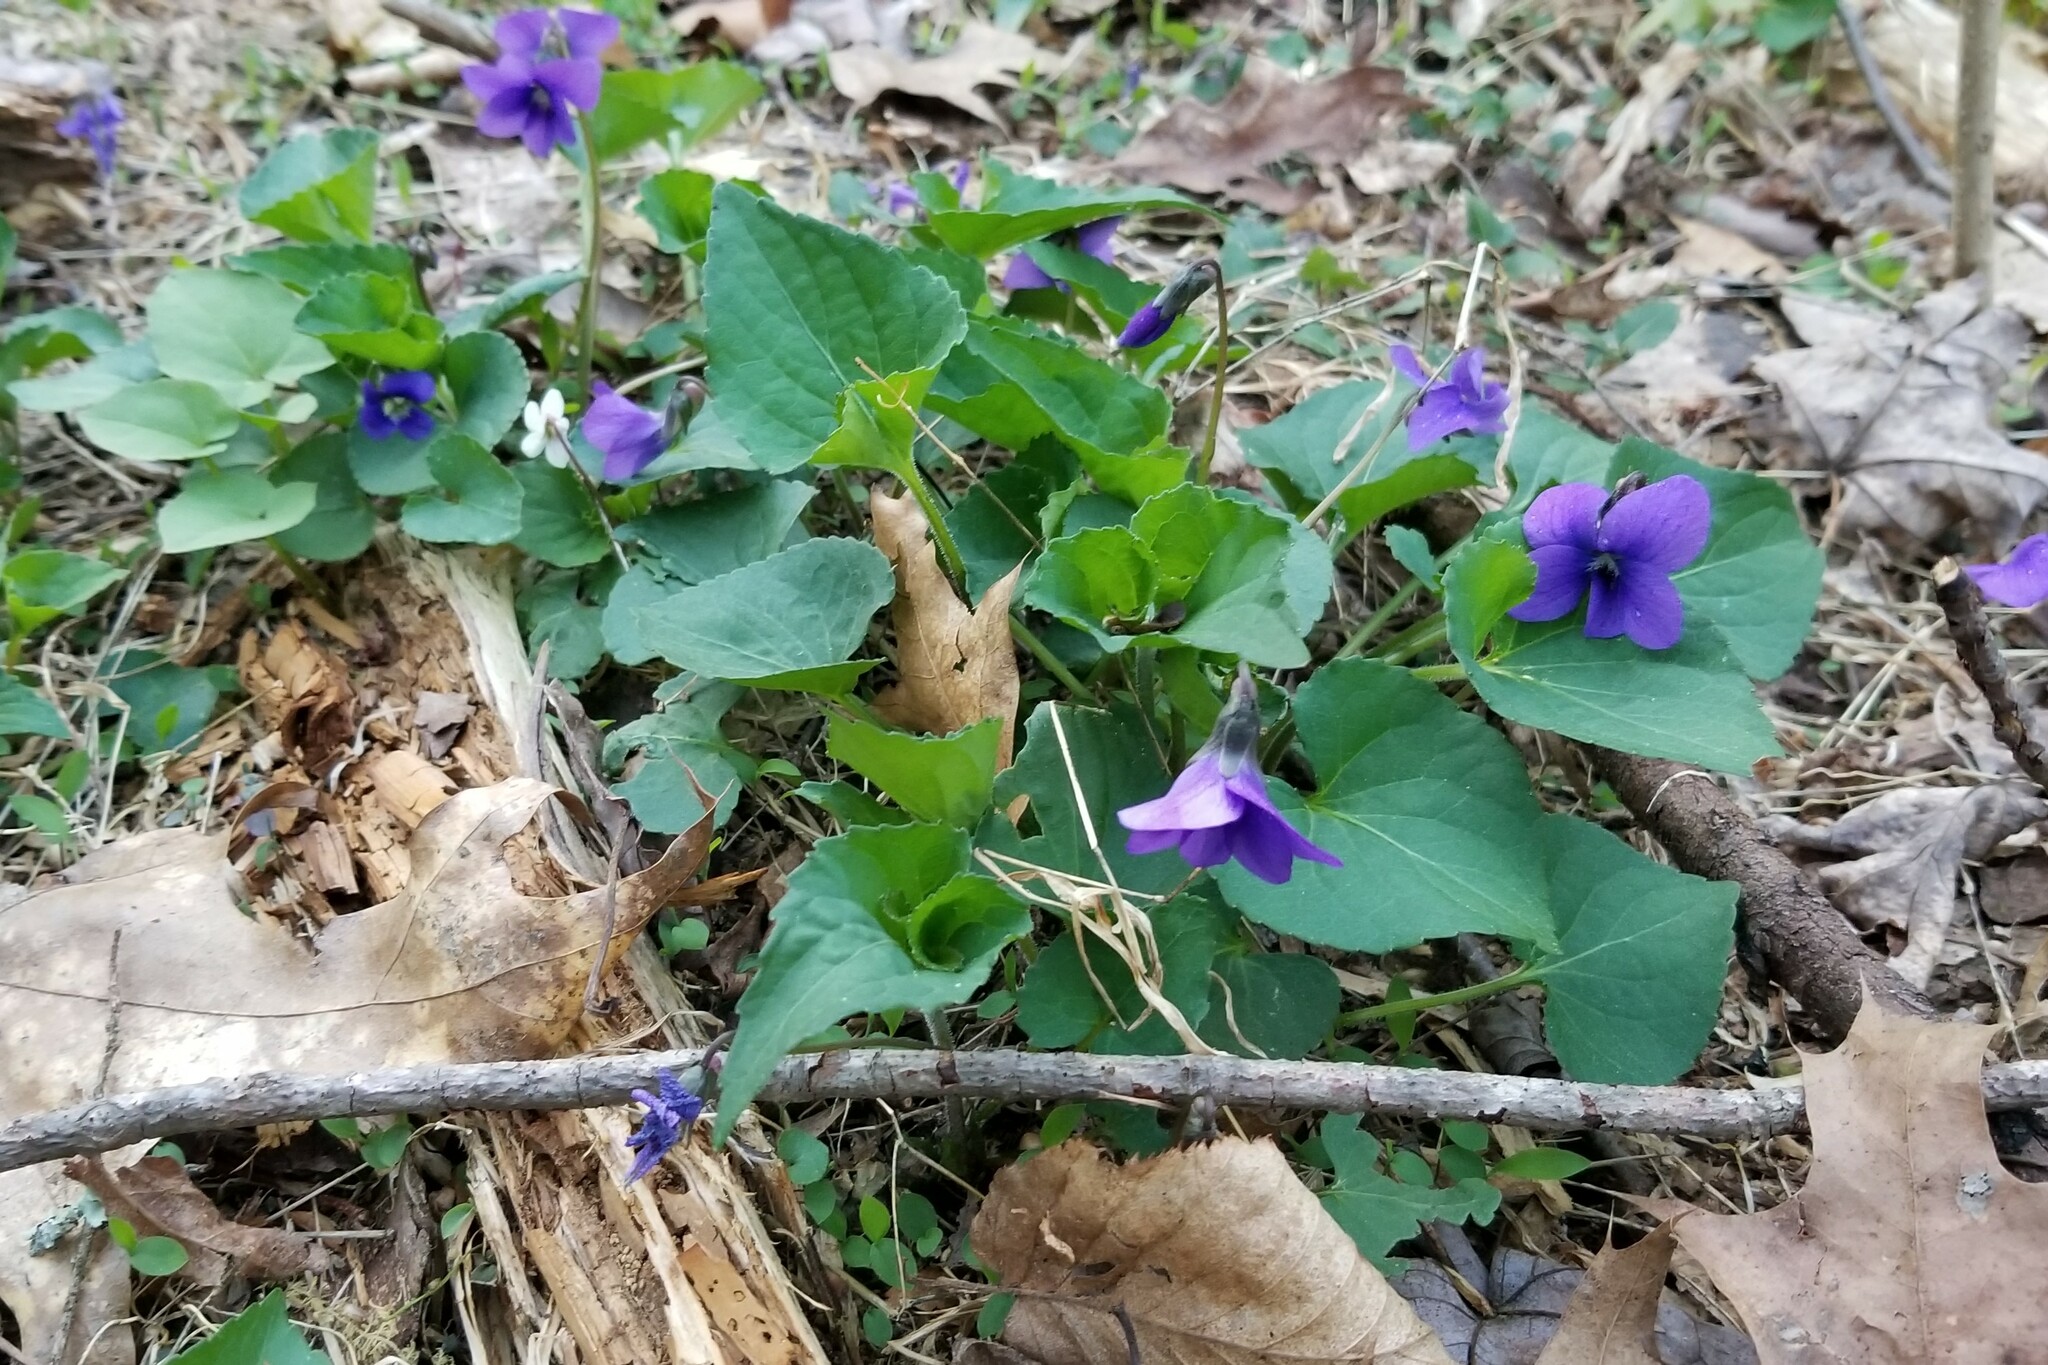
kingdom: Plantae
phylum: Tracheophyta
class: Magnoliopsida
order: Malpighiales
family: Violaceae
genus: Viola
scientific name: Viola sororia
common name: Dooryard violet
